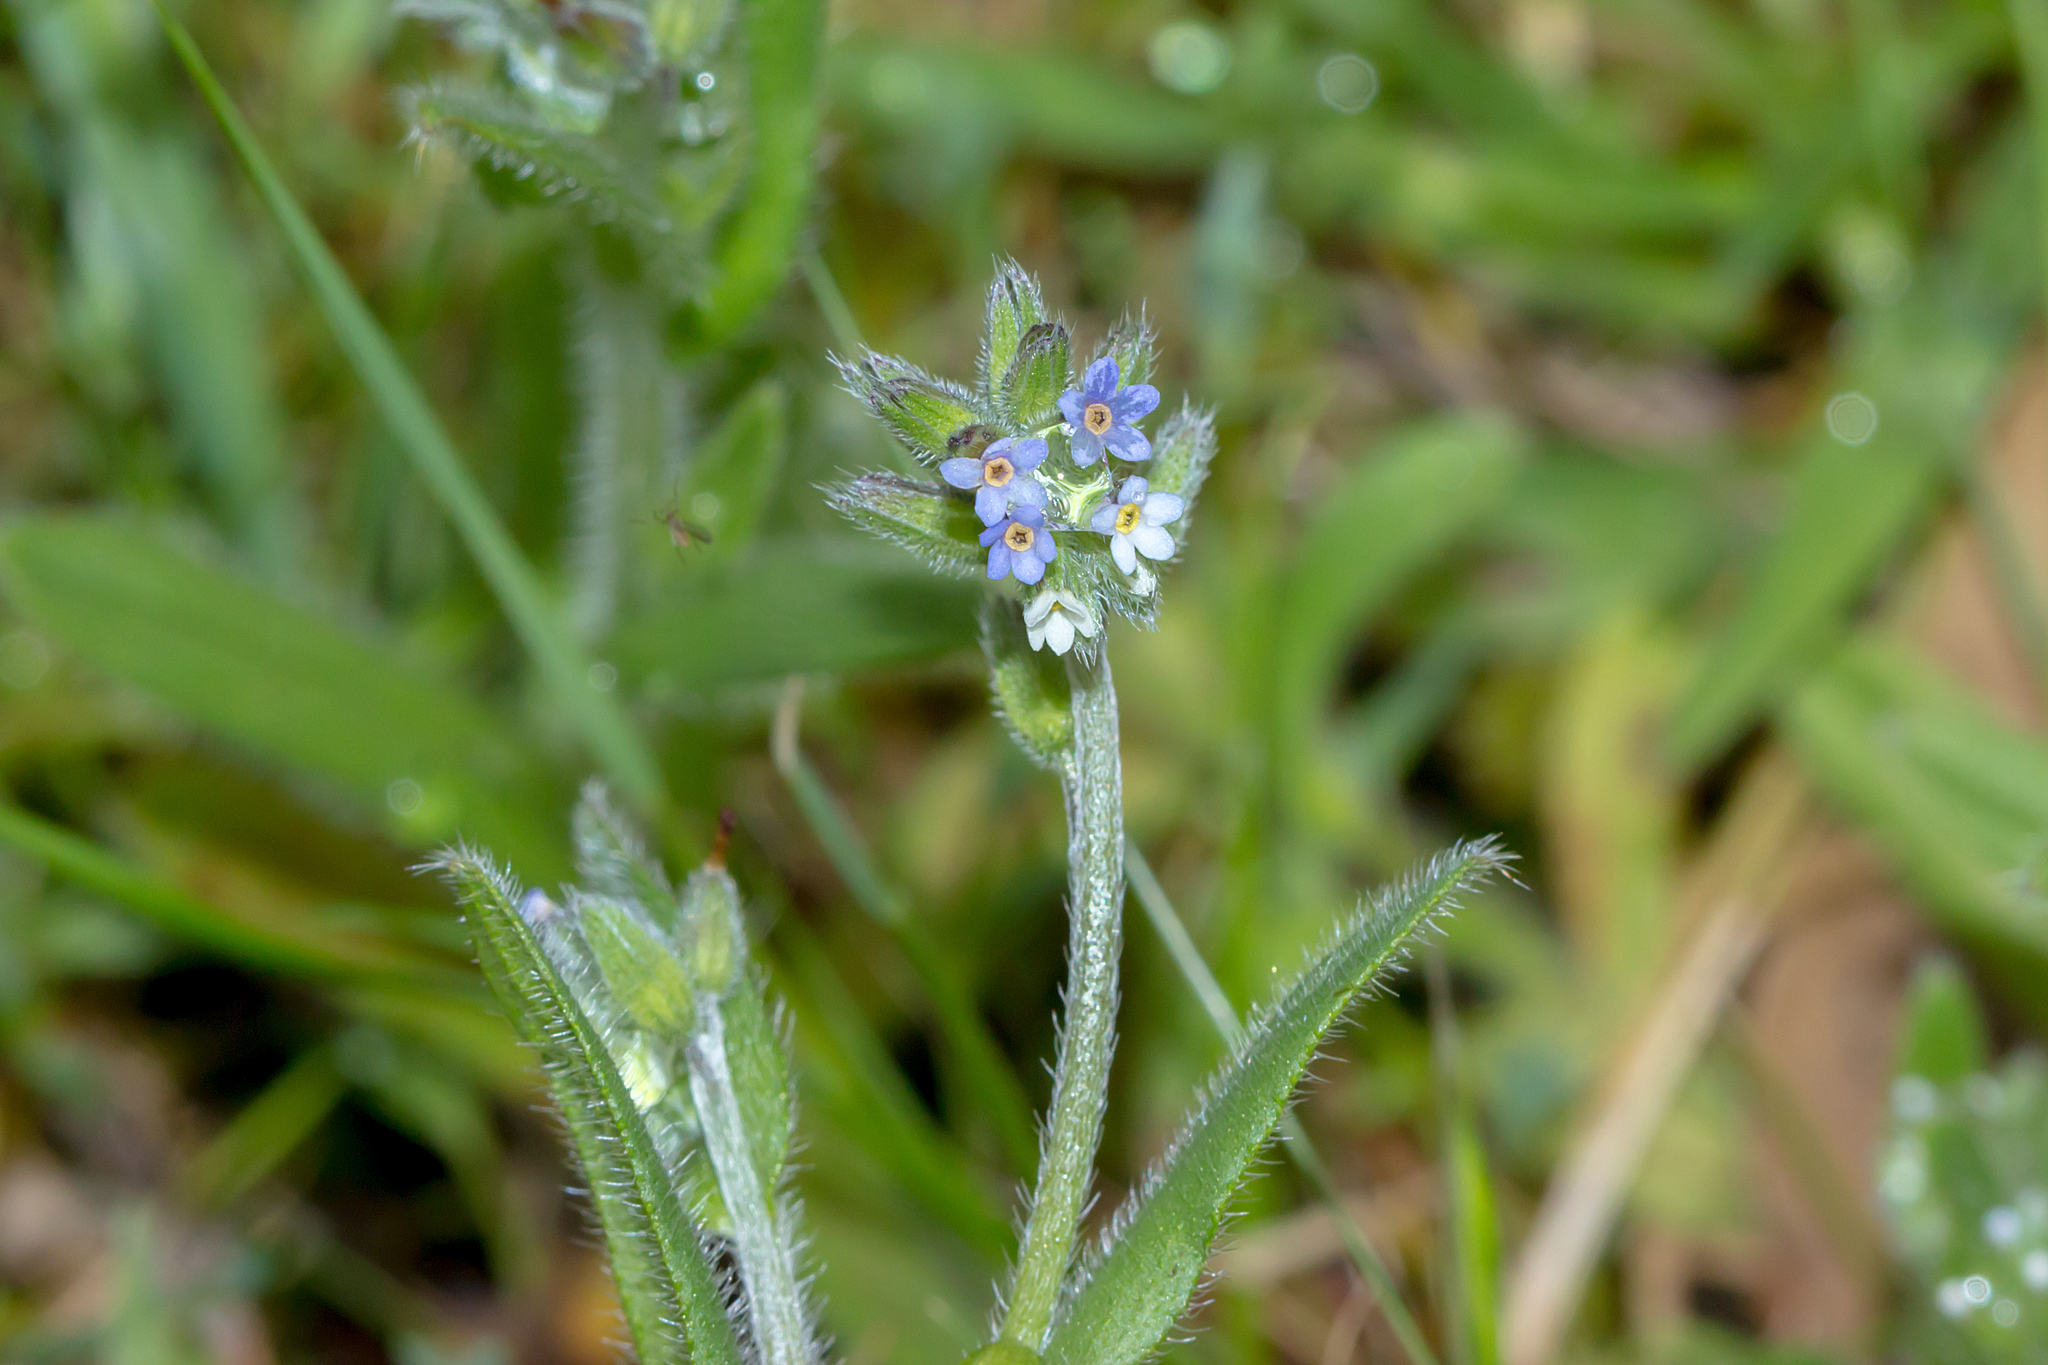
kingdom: Plantae
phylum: Tracheophyta
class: Magnoliopsida
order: Boraginales
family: Boraginaceae
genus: Myosotis
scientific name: Myosotis discolor
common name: Changing forget-me-not
